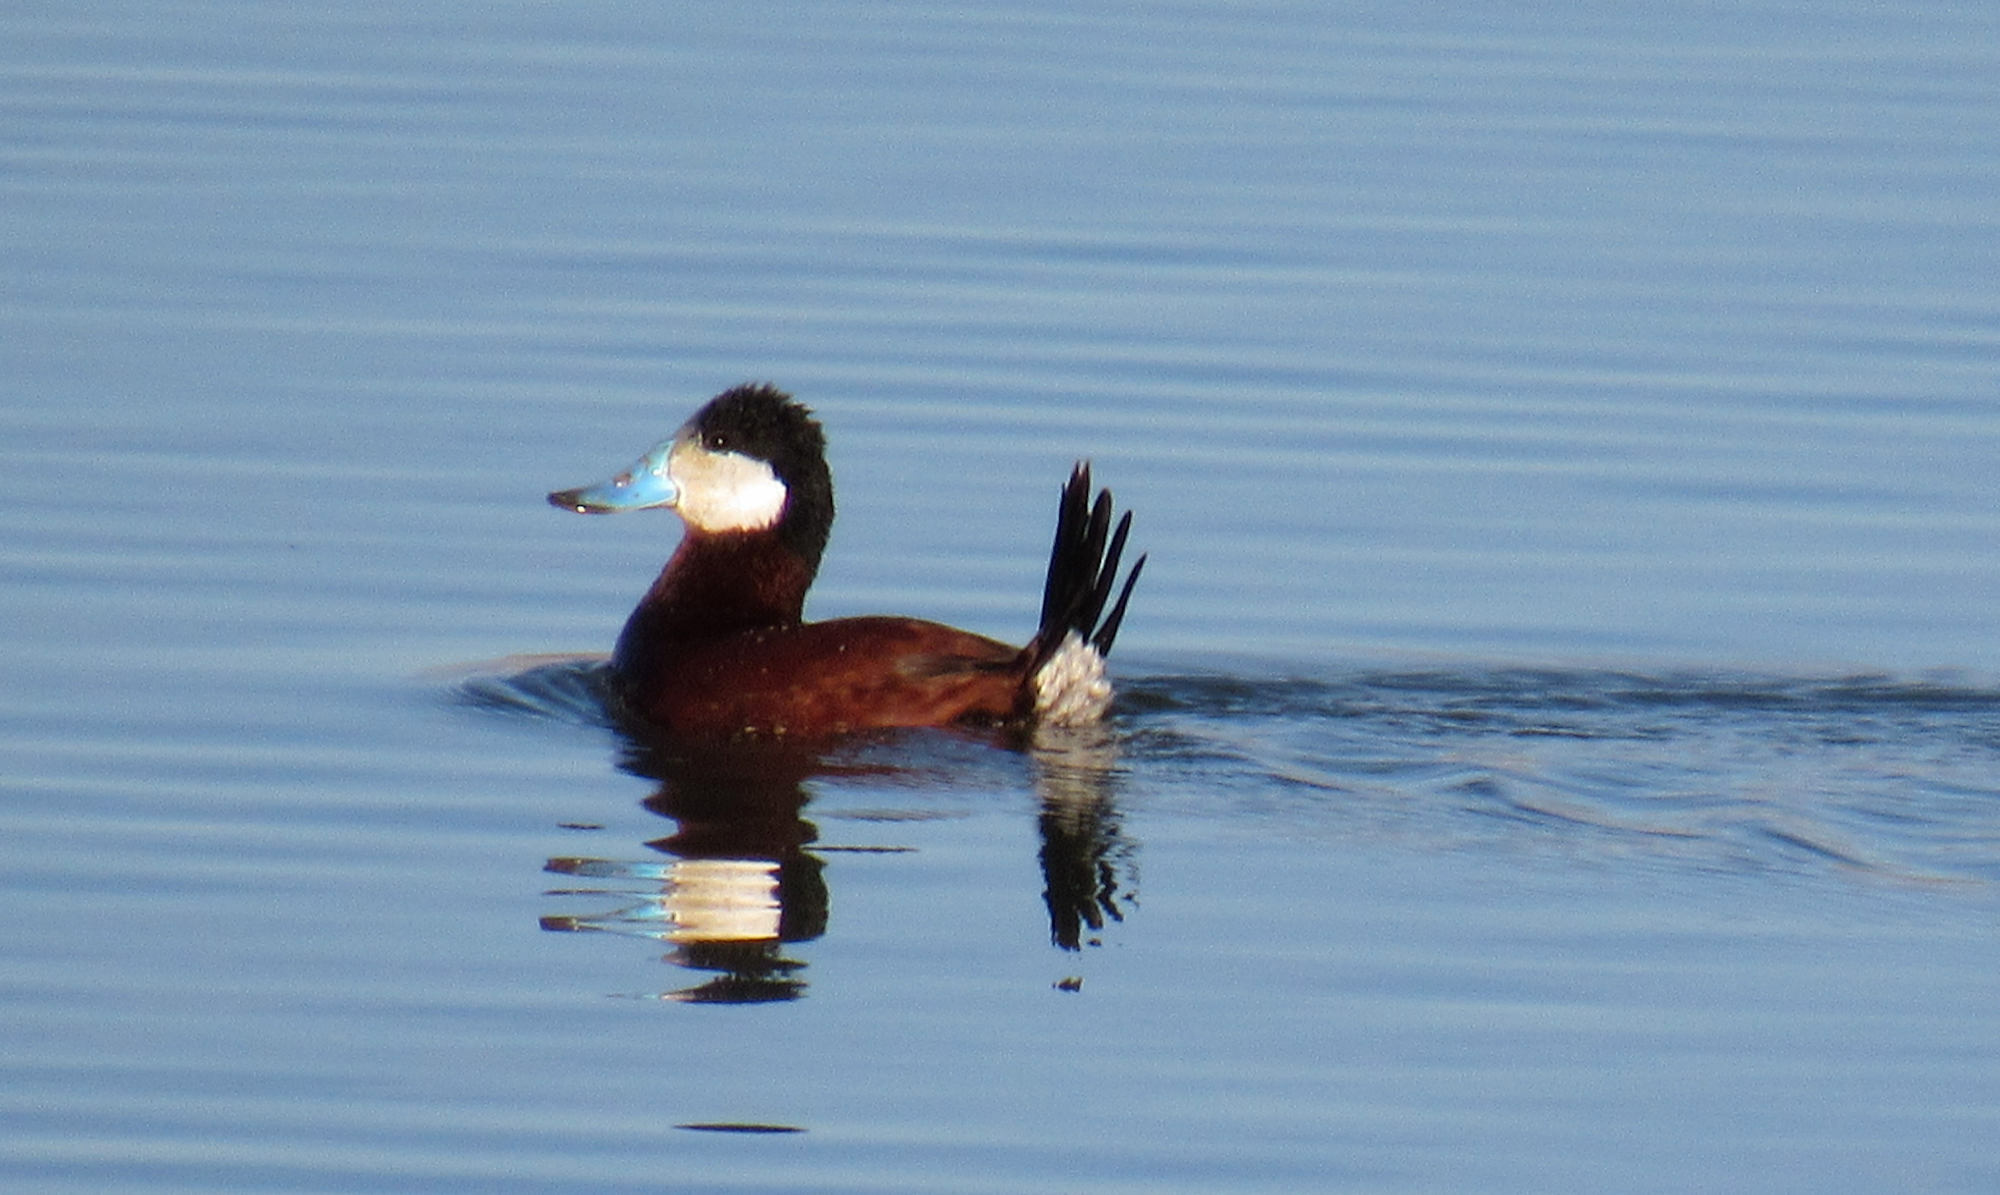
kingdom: Animalia
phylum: Chordata
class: Aves
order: Anseriformes
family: Anatidae
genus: Oxyura
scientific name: Oxyura jamaicensis
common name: Ruddy duck
